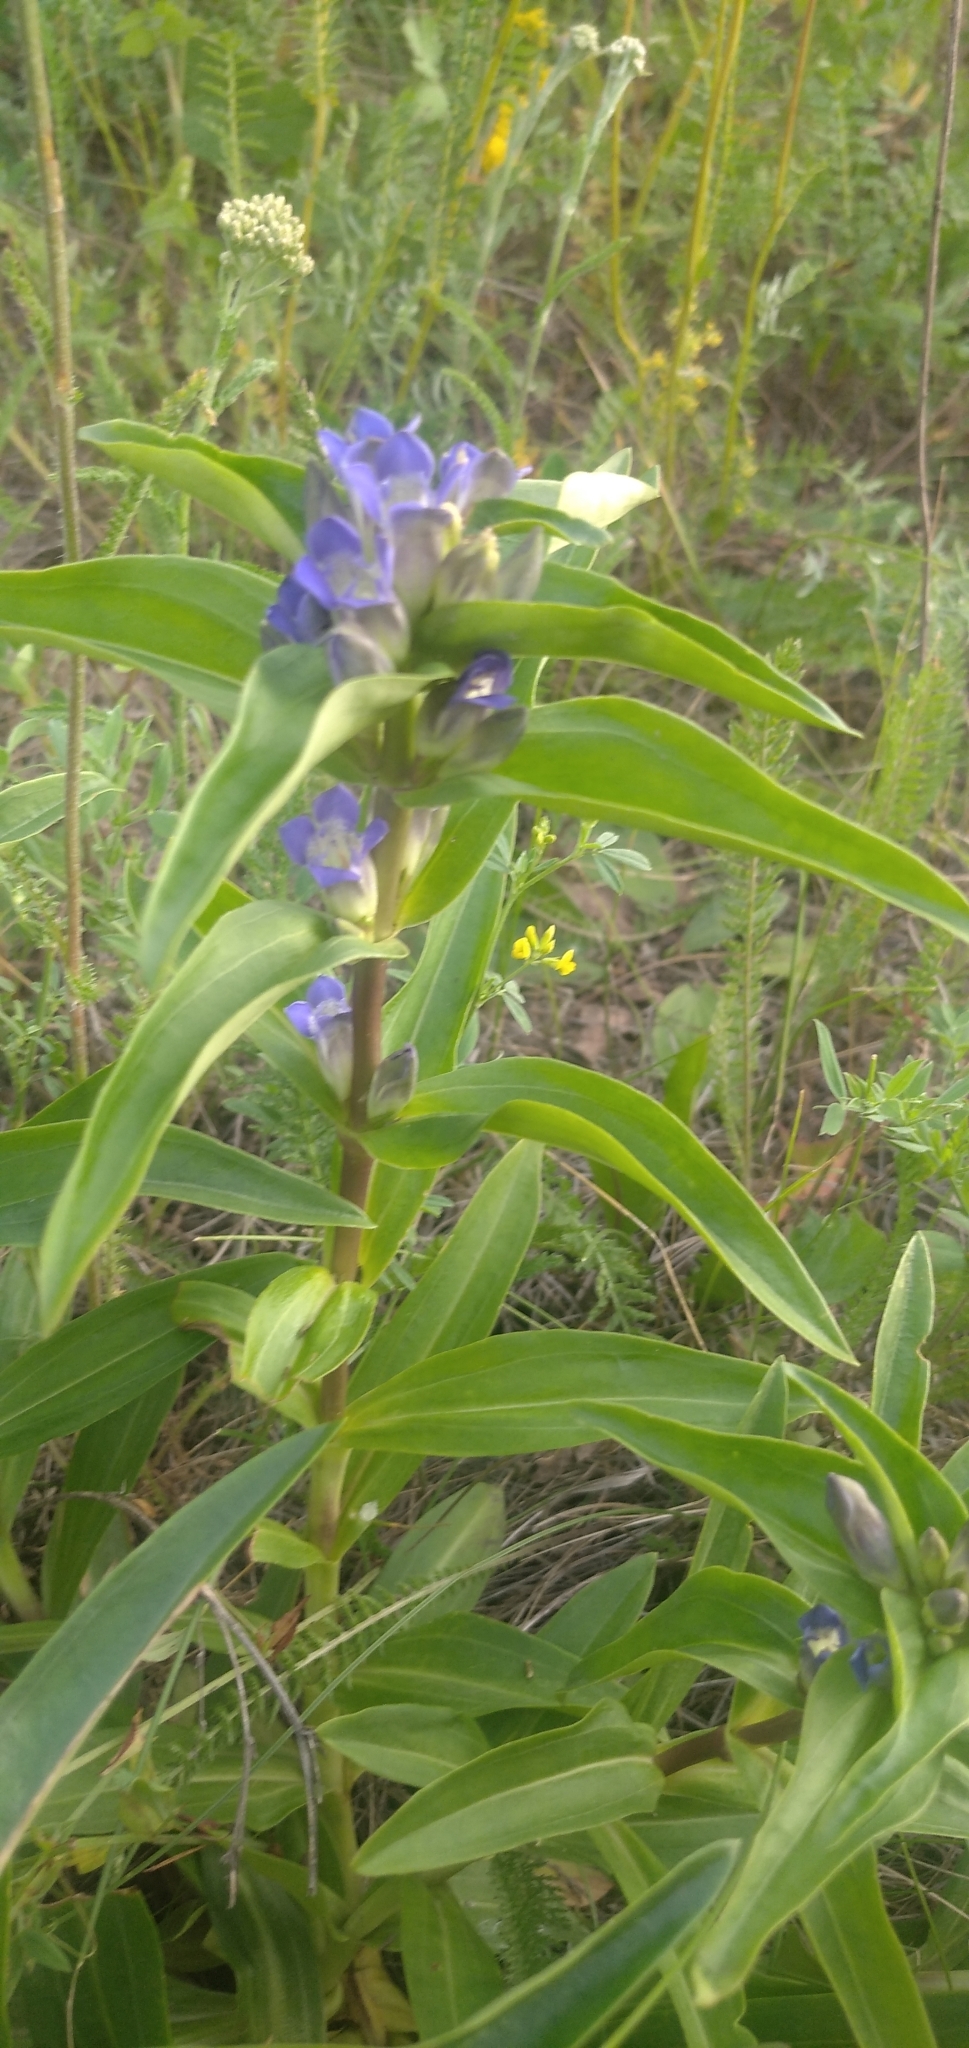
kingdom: Plantae
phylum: Tracheophyta
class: Magnoliopsida
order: Gentianales
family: Gentianaceae
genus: Gentiana
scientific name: Gentiana cruciata
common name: Cross gentian
